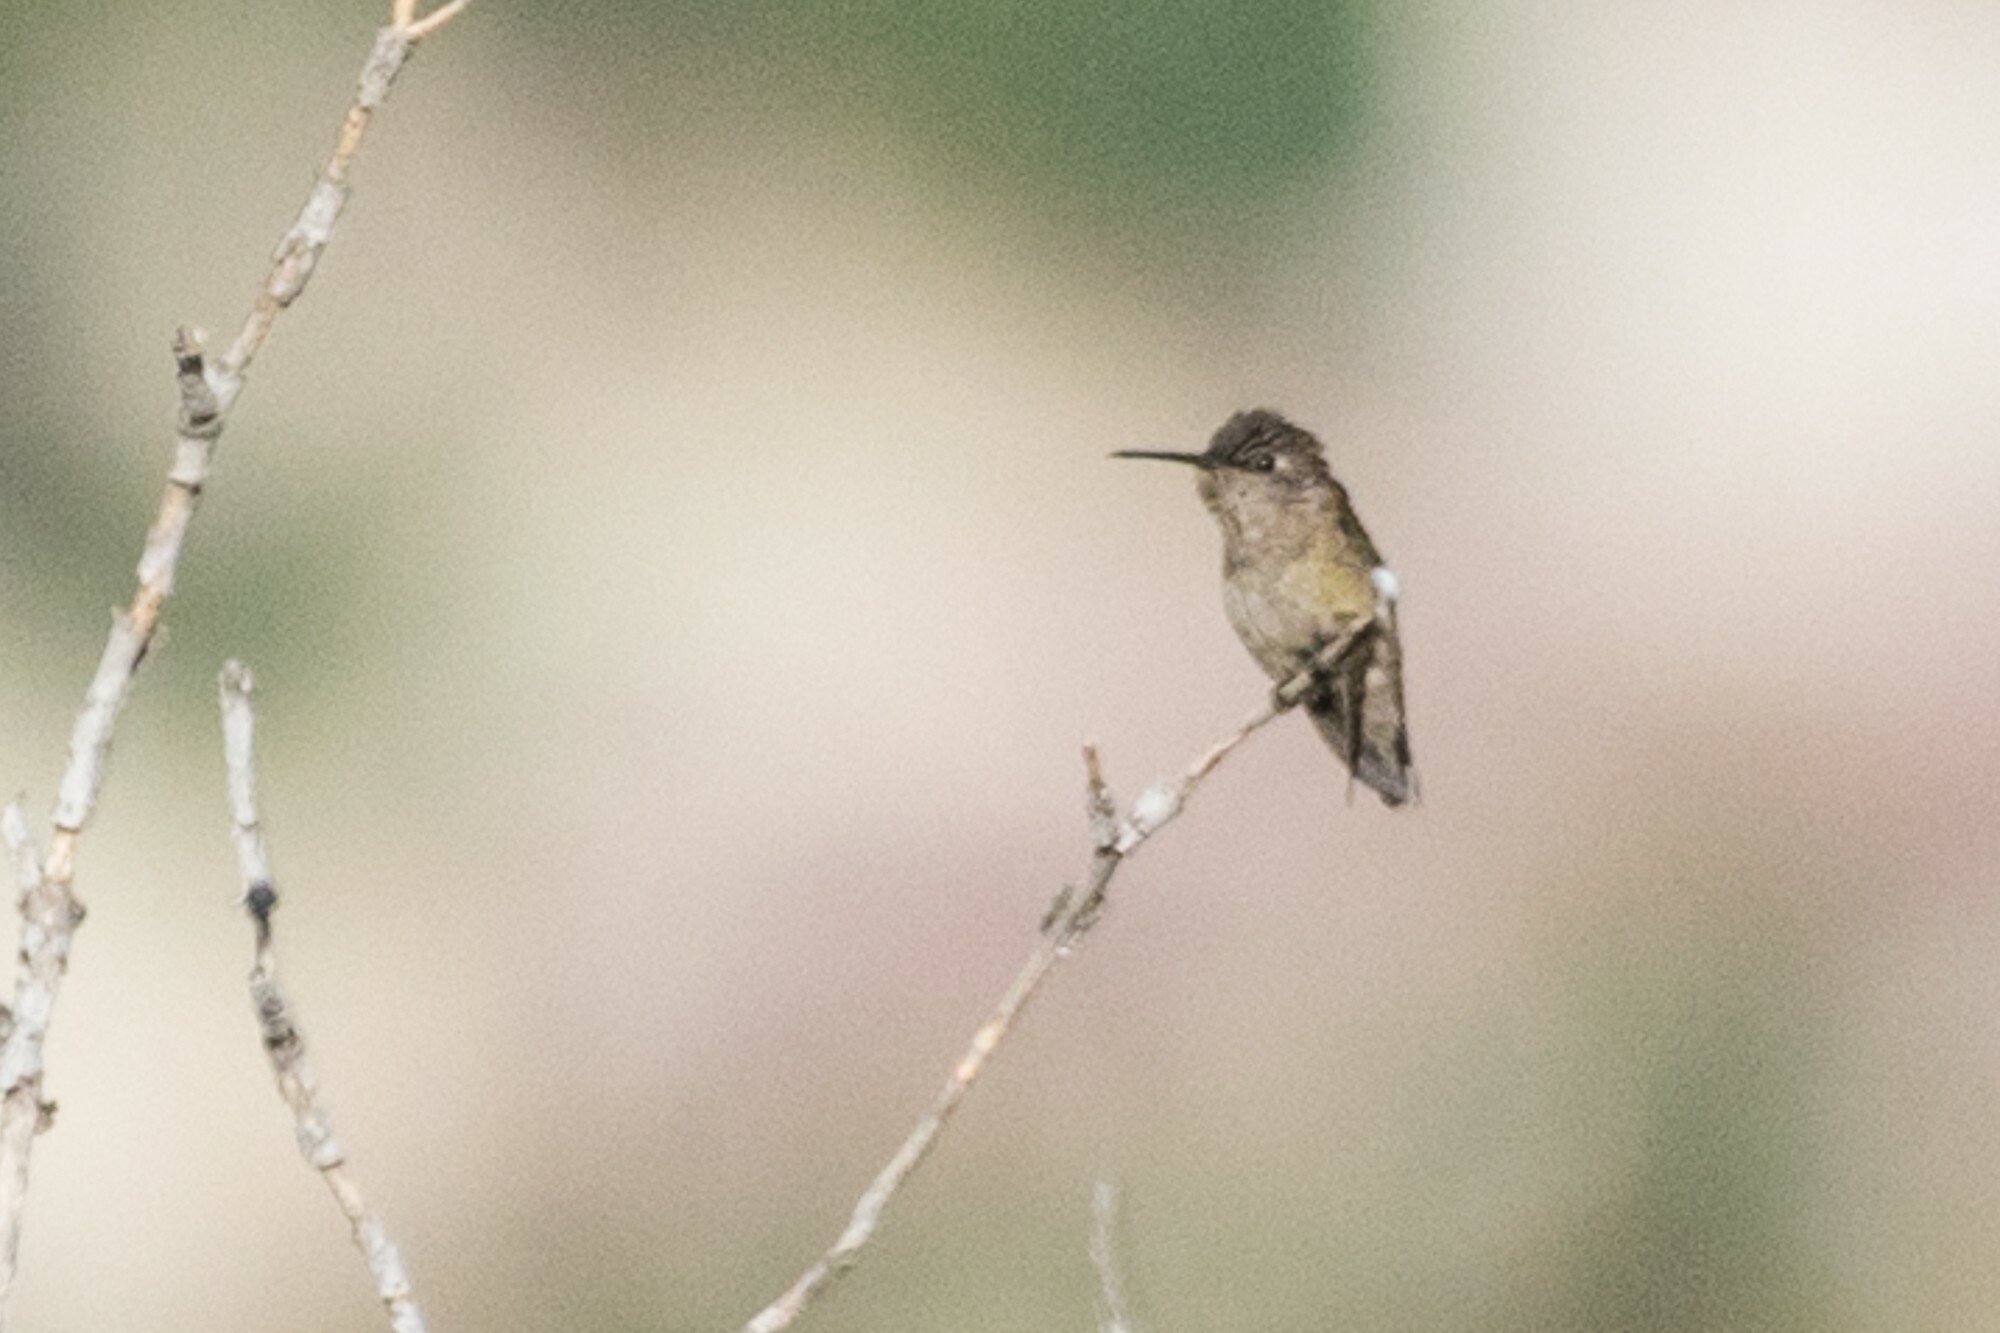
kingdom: Animalia
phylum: Chordata
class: Aves
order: Apodiformes
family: Trochilidae
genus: Calypte
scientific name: Calypte costae
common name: Costa's hummingbird
